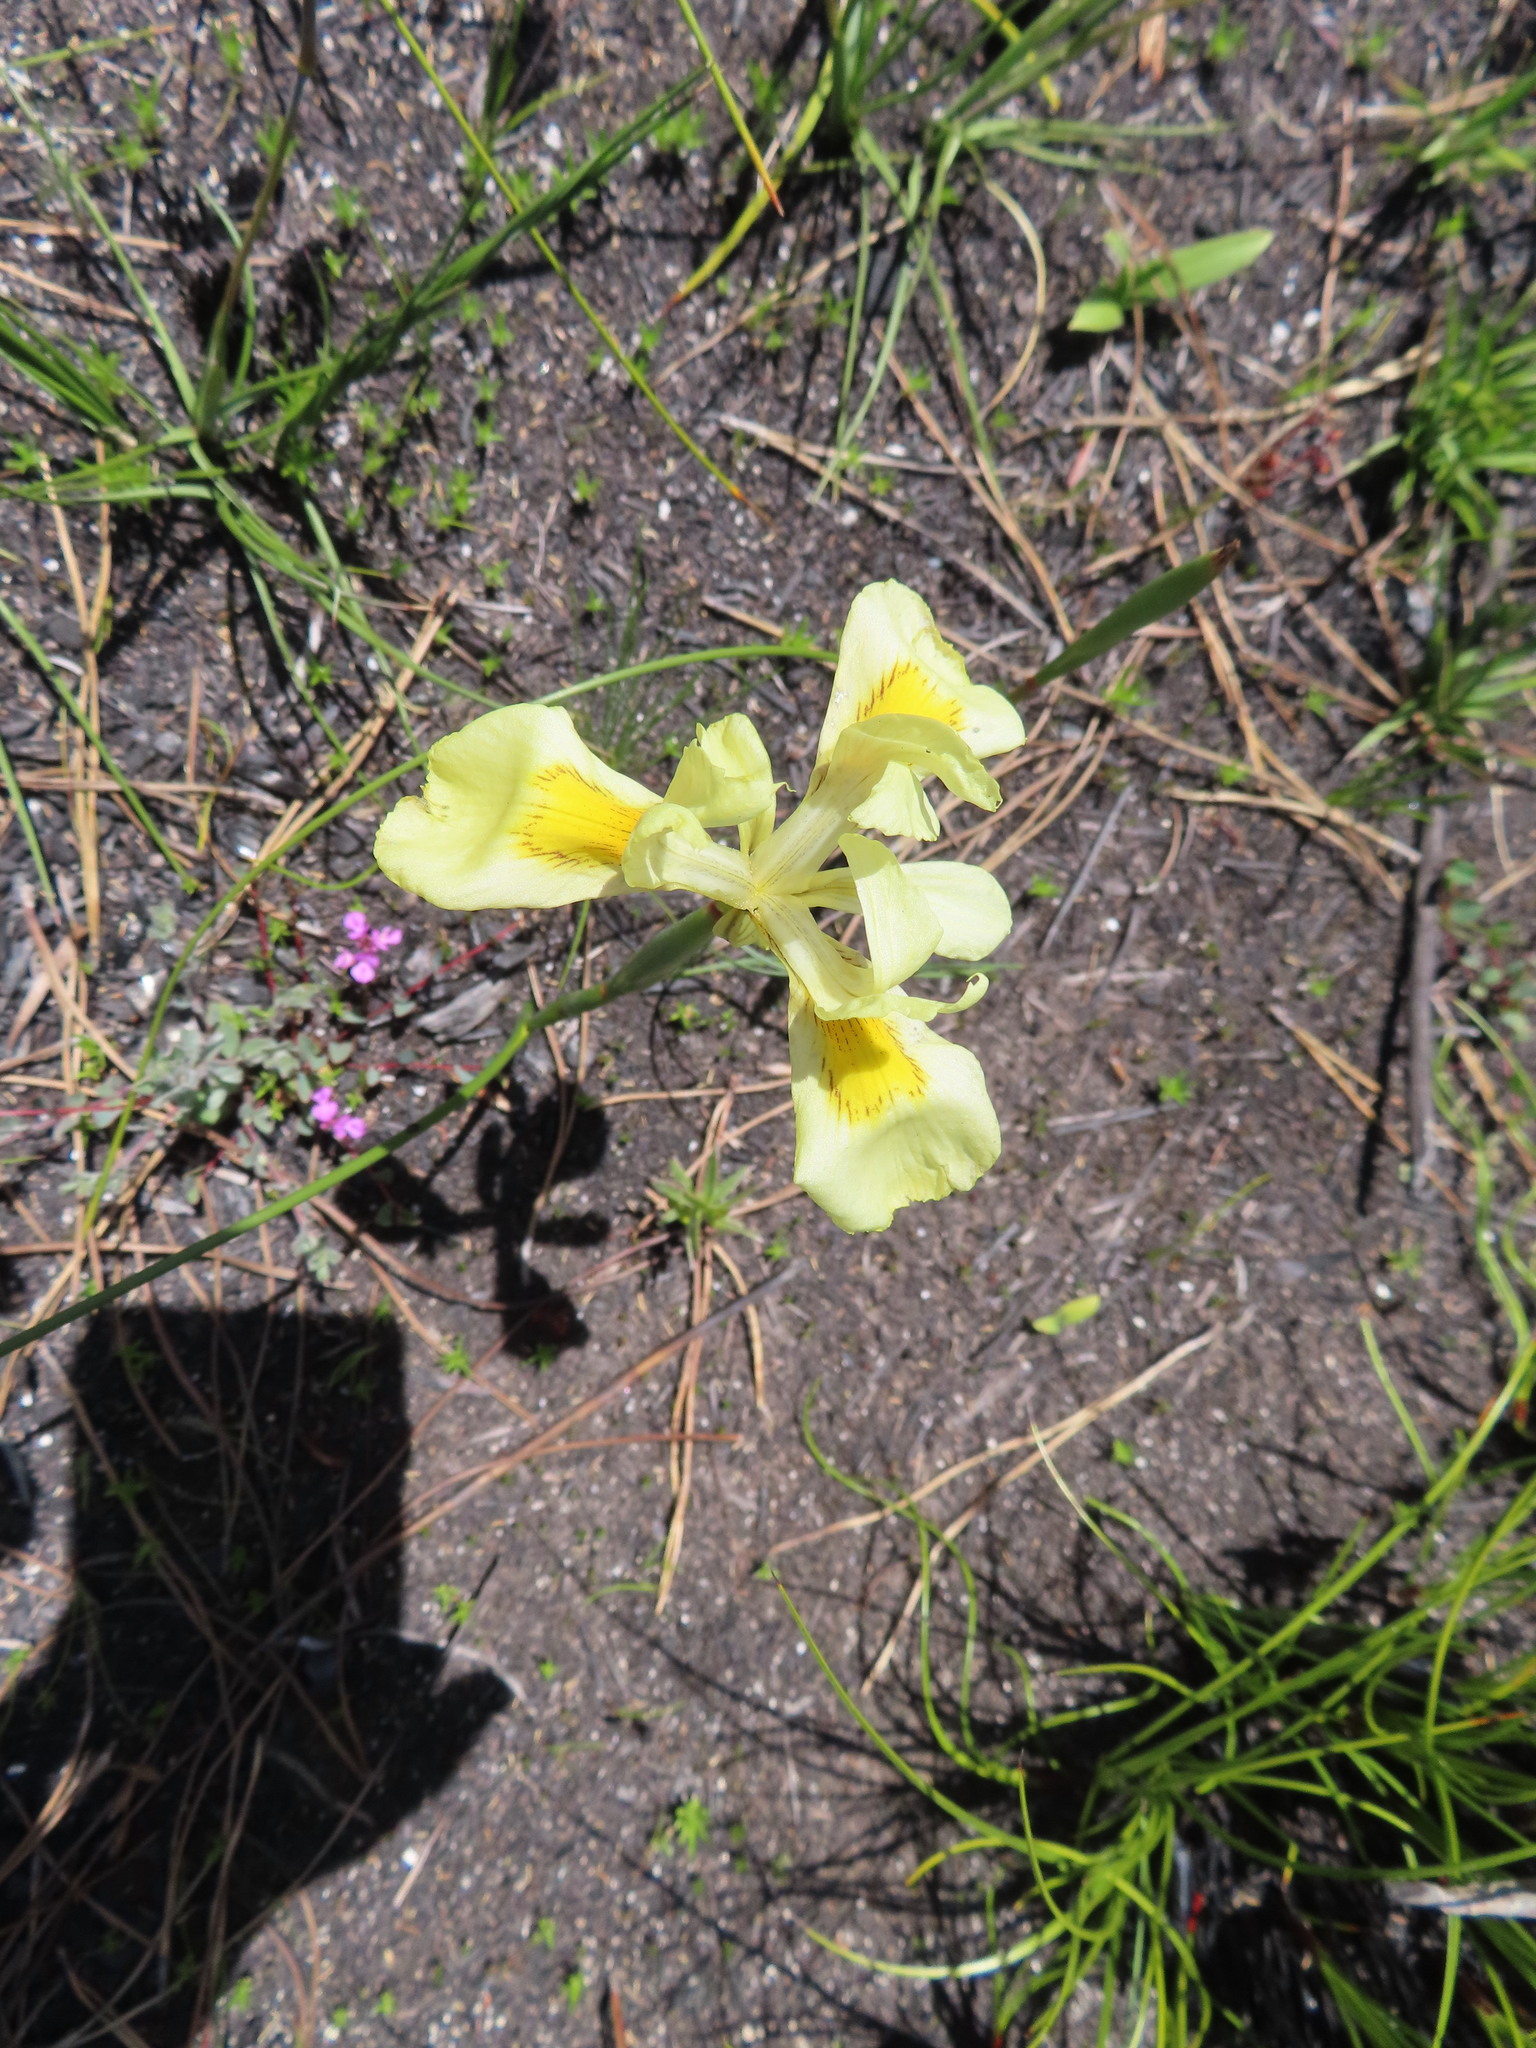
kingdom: Plantae
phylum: Tracheophyta
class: Liliopsida
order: Asparagales
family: Iridaceae
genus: Moraea
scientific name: Moraea neglecta
